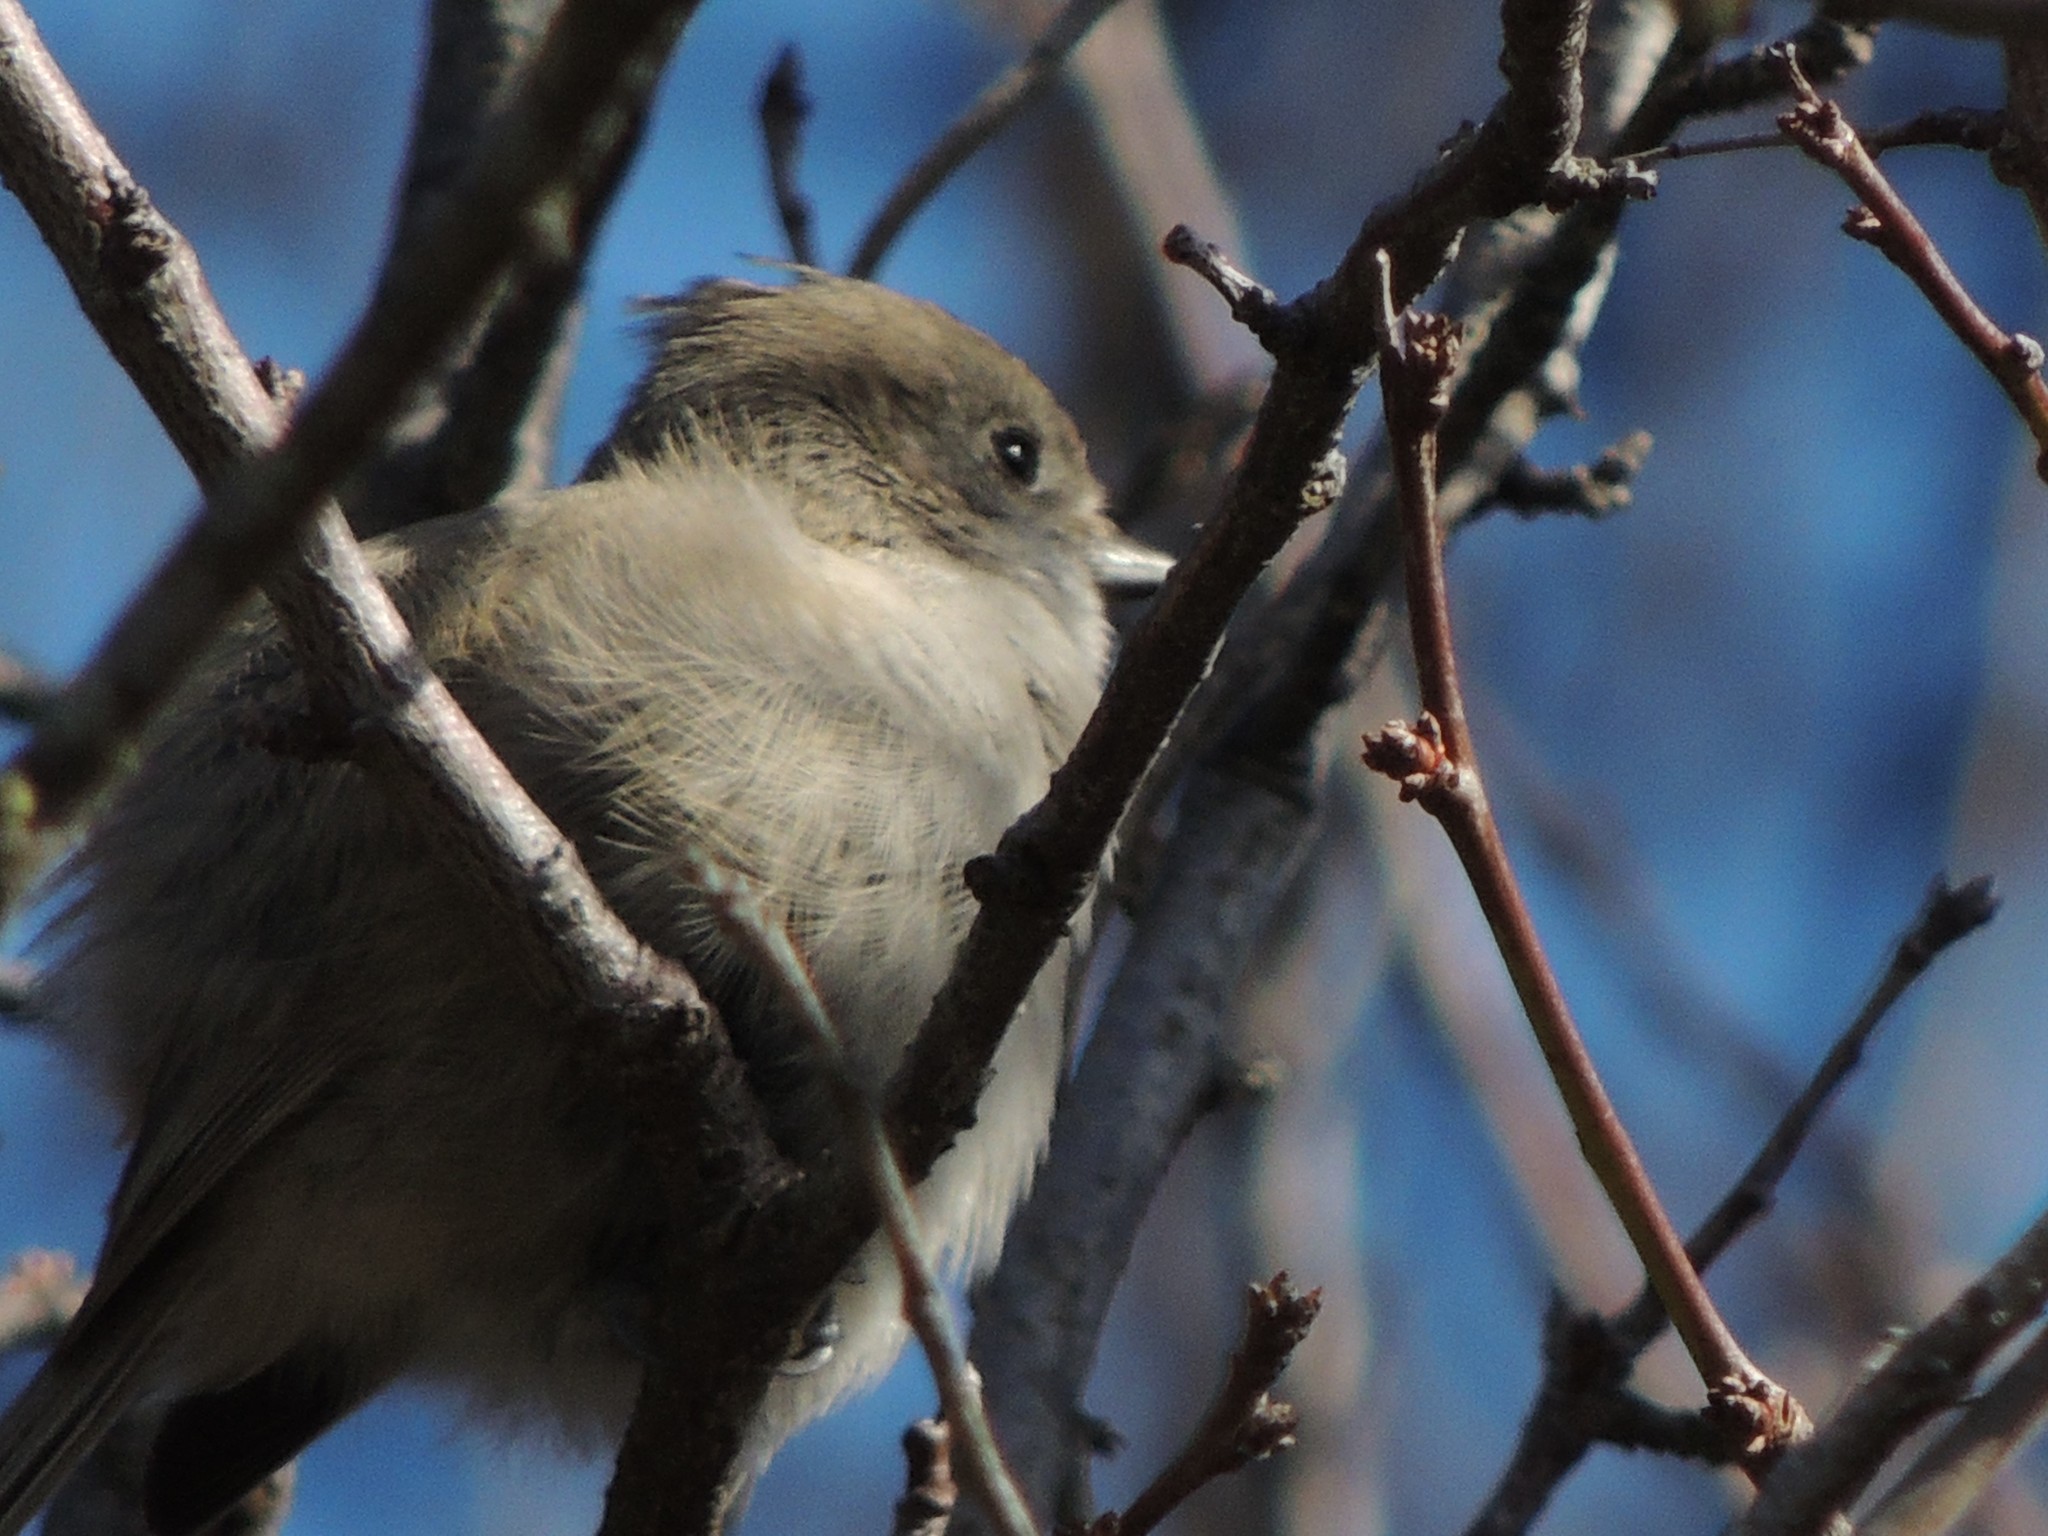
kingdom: Animalia
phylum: Chordata
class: Aves
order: Passeriformes
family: Paridae
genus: Baeolophus
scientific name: Baeolophus inornatus
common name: Oak titmouse
